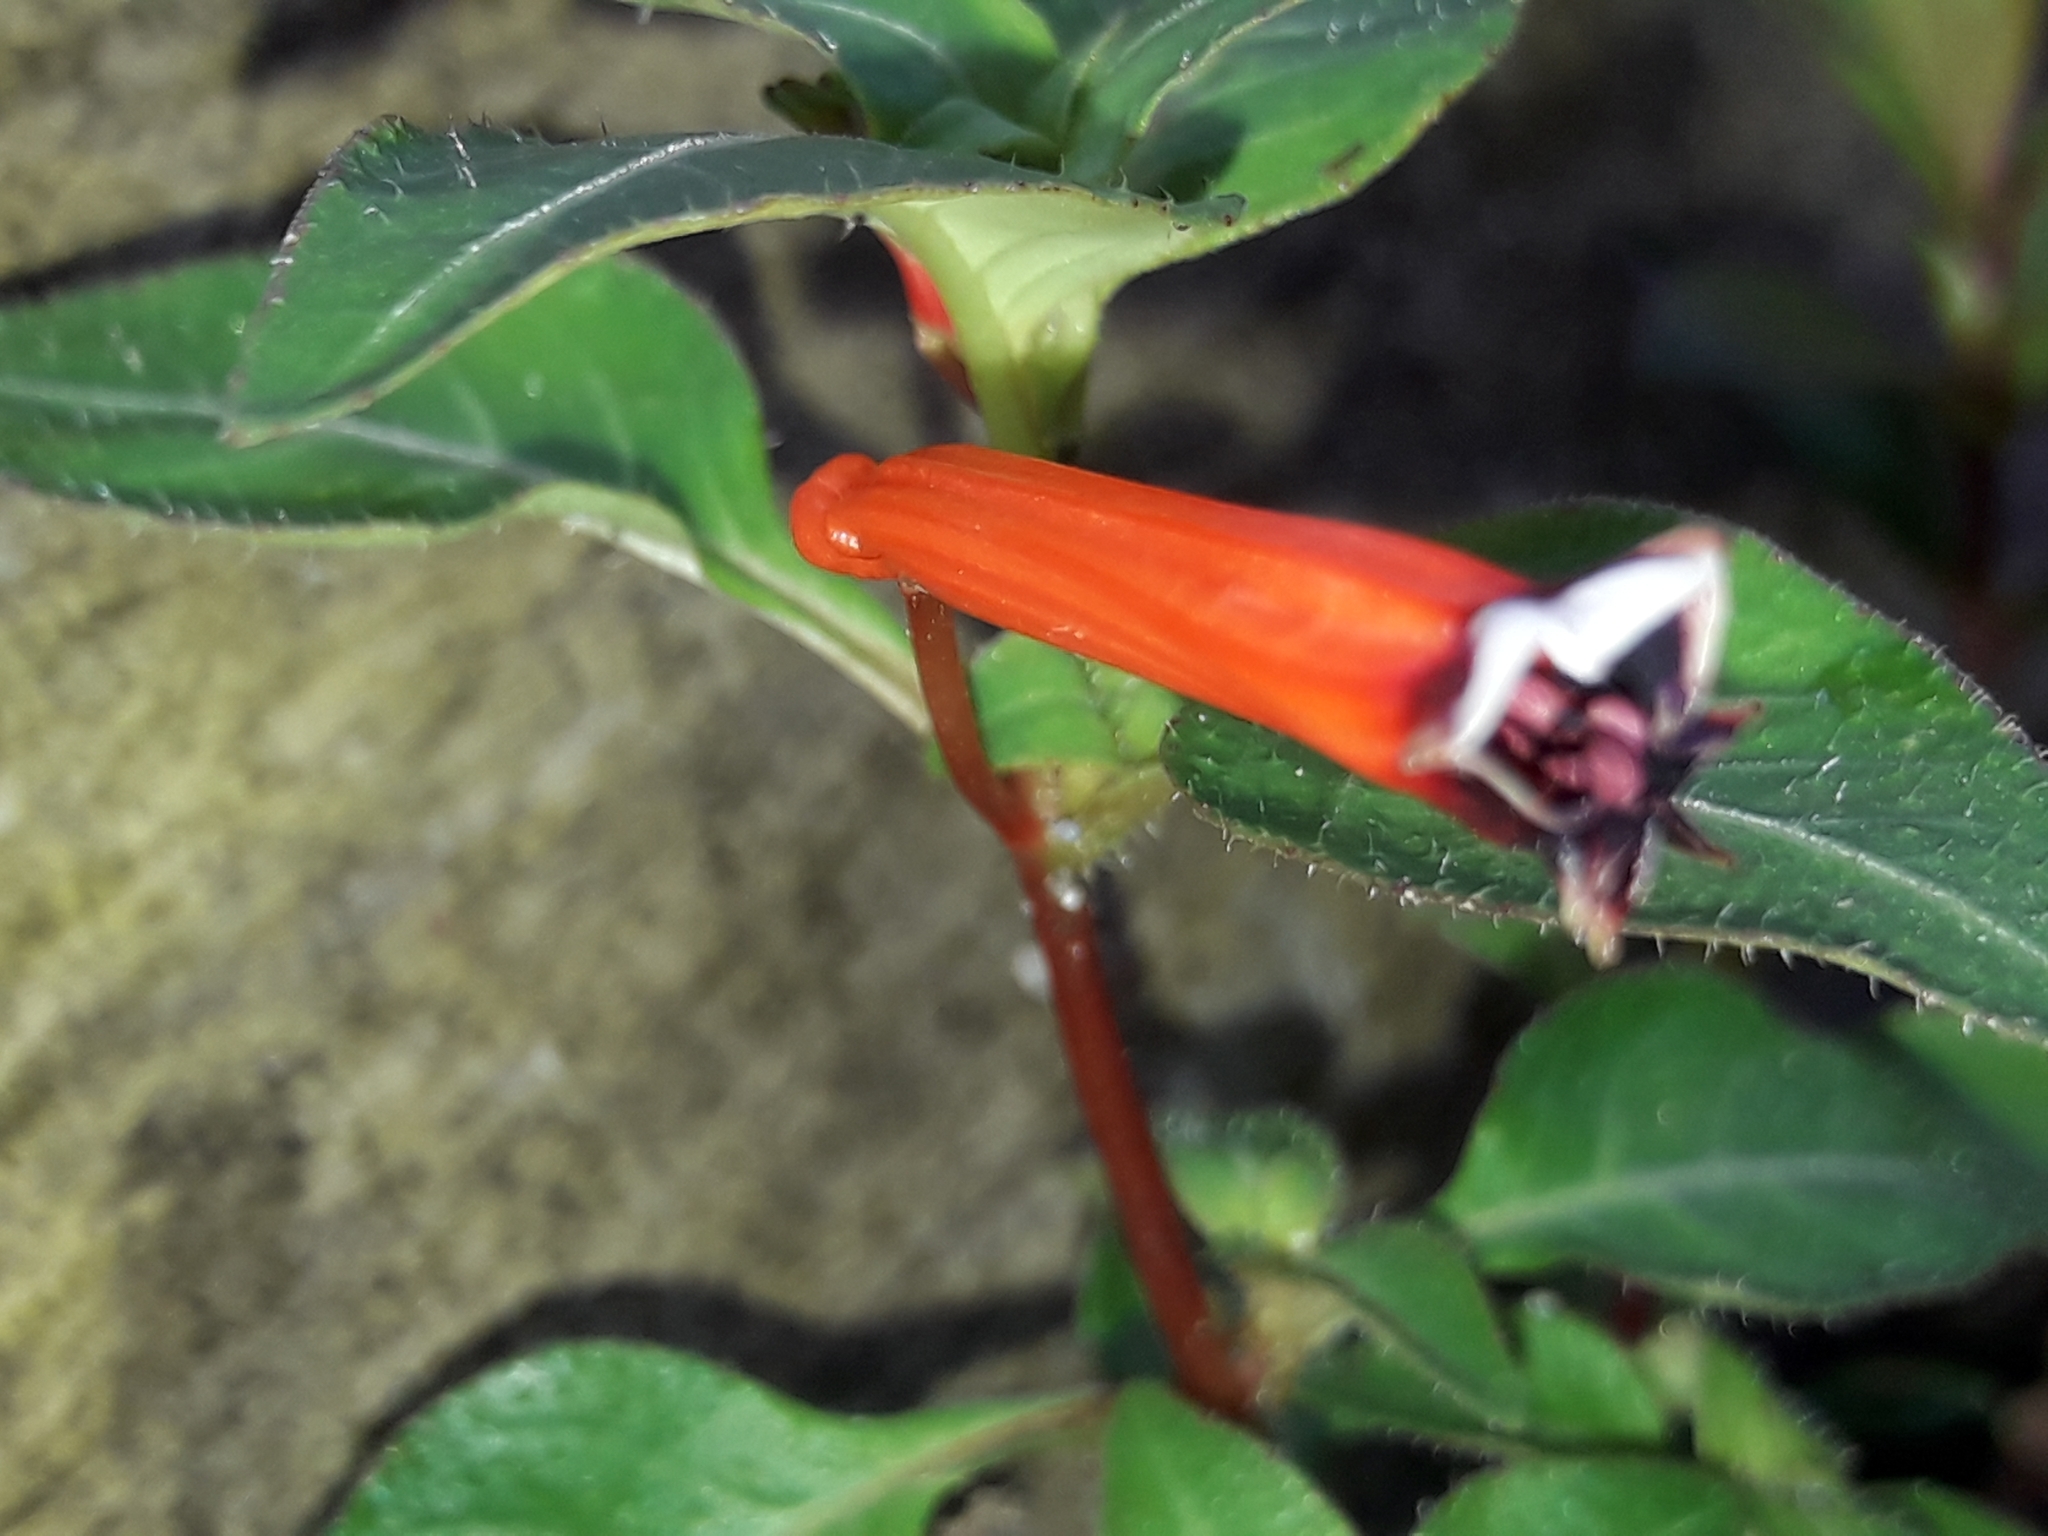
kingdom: Plantae
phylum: Tracheophyta
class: Magnoliopsida
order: Myrtales
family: Lythraceae
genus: Cuphea
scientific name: Cuphea ignea
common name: Cigar flower
